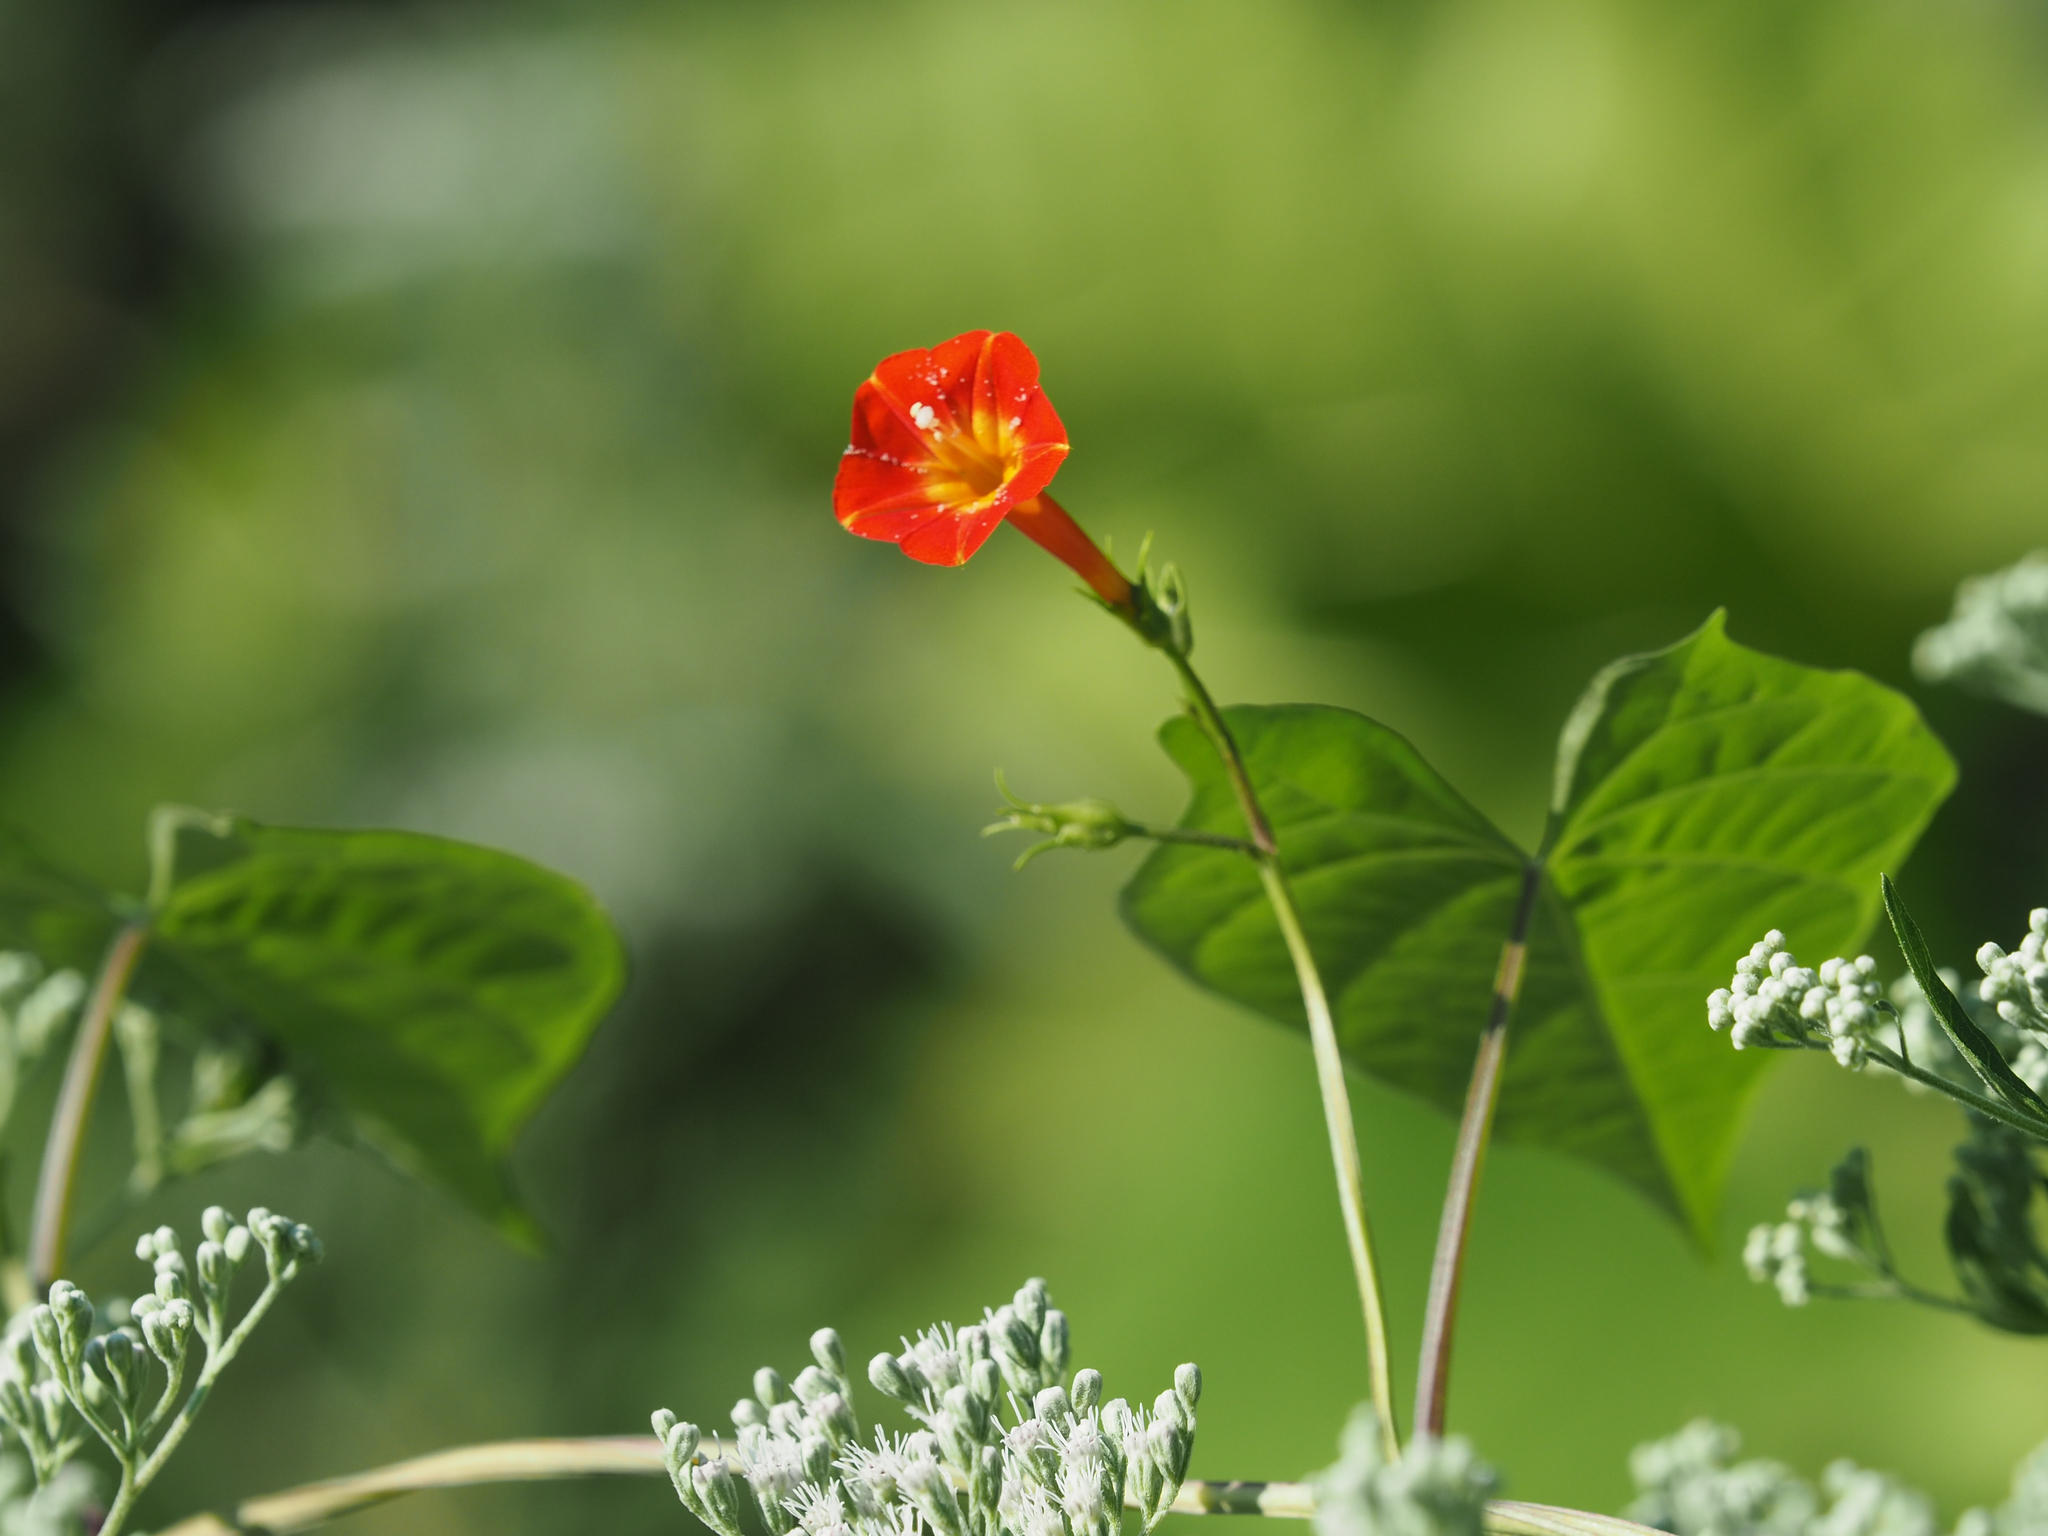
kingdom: Plantae
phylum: Tracheophyta
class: Magnoliopsida
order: Solanales
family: Convolvulaceae
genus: Ipomoea
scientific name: Ipomoea hederifolia
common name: Ivy-leaf morning-glory
